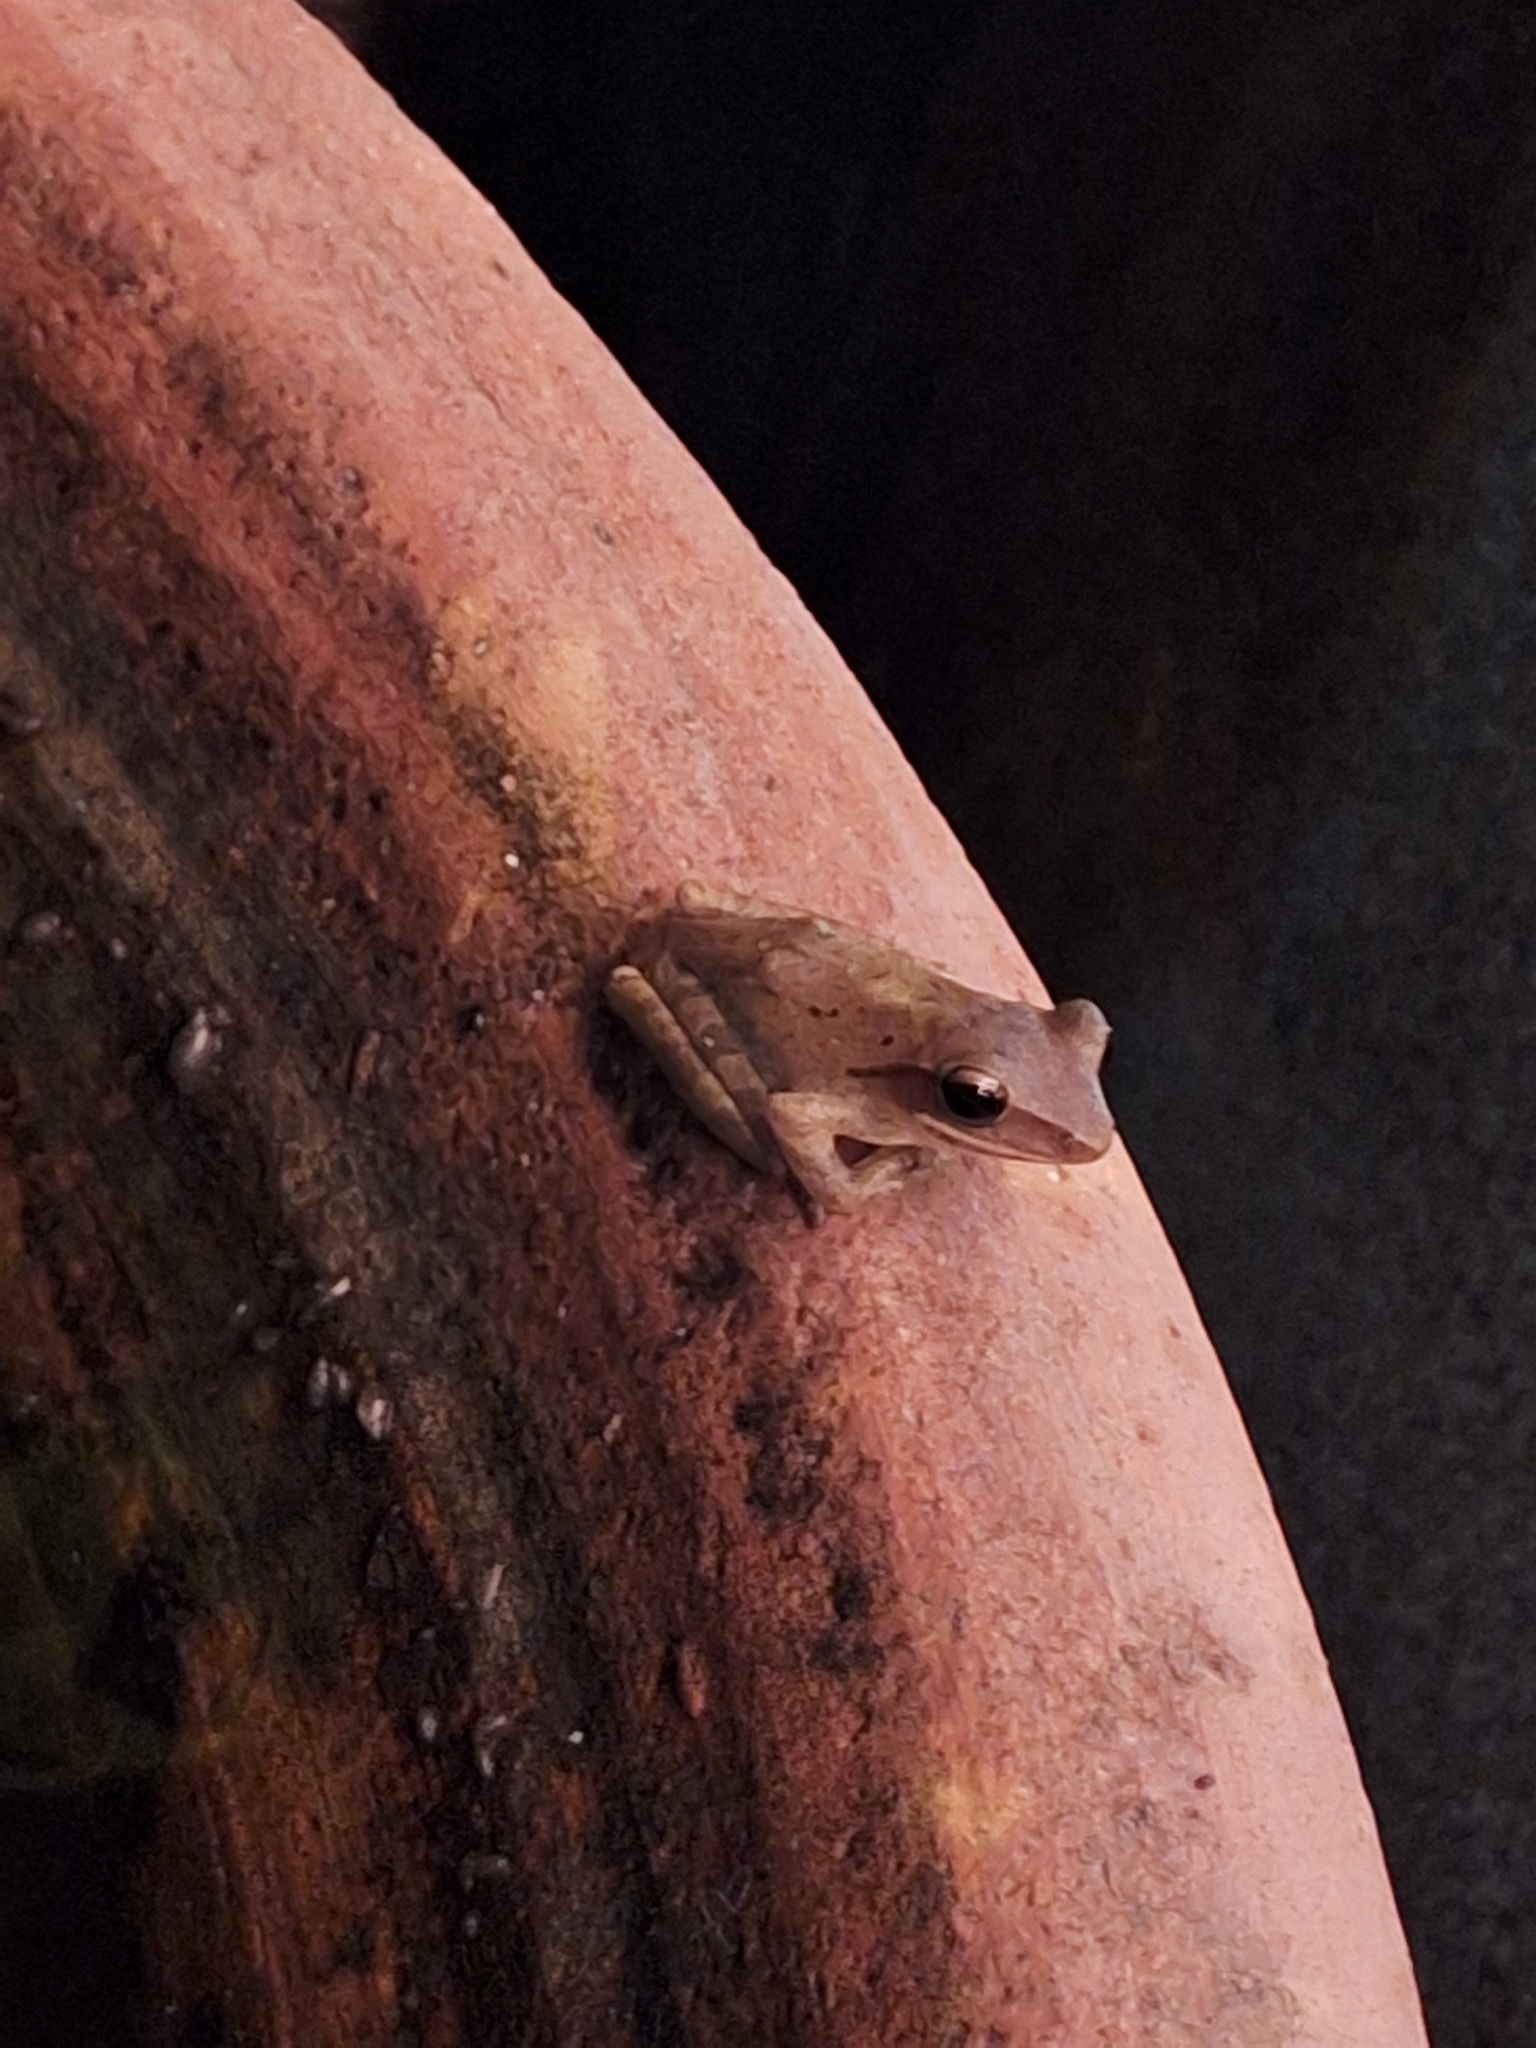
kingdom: Animalia
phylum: Chordata
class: Amphibia
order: Anura
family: Rhacophoridae
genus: Polypedates
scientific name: Polypedates leucomystax
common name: Common tree frog/four-lined tree frog
